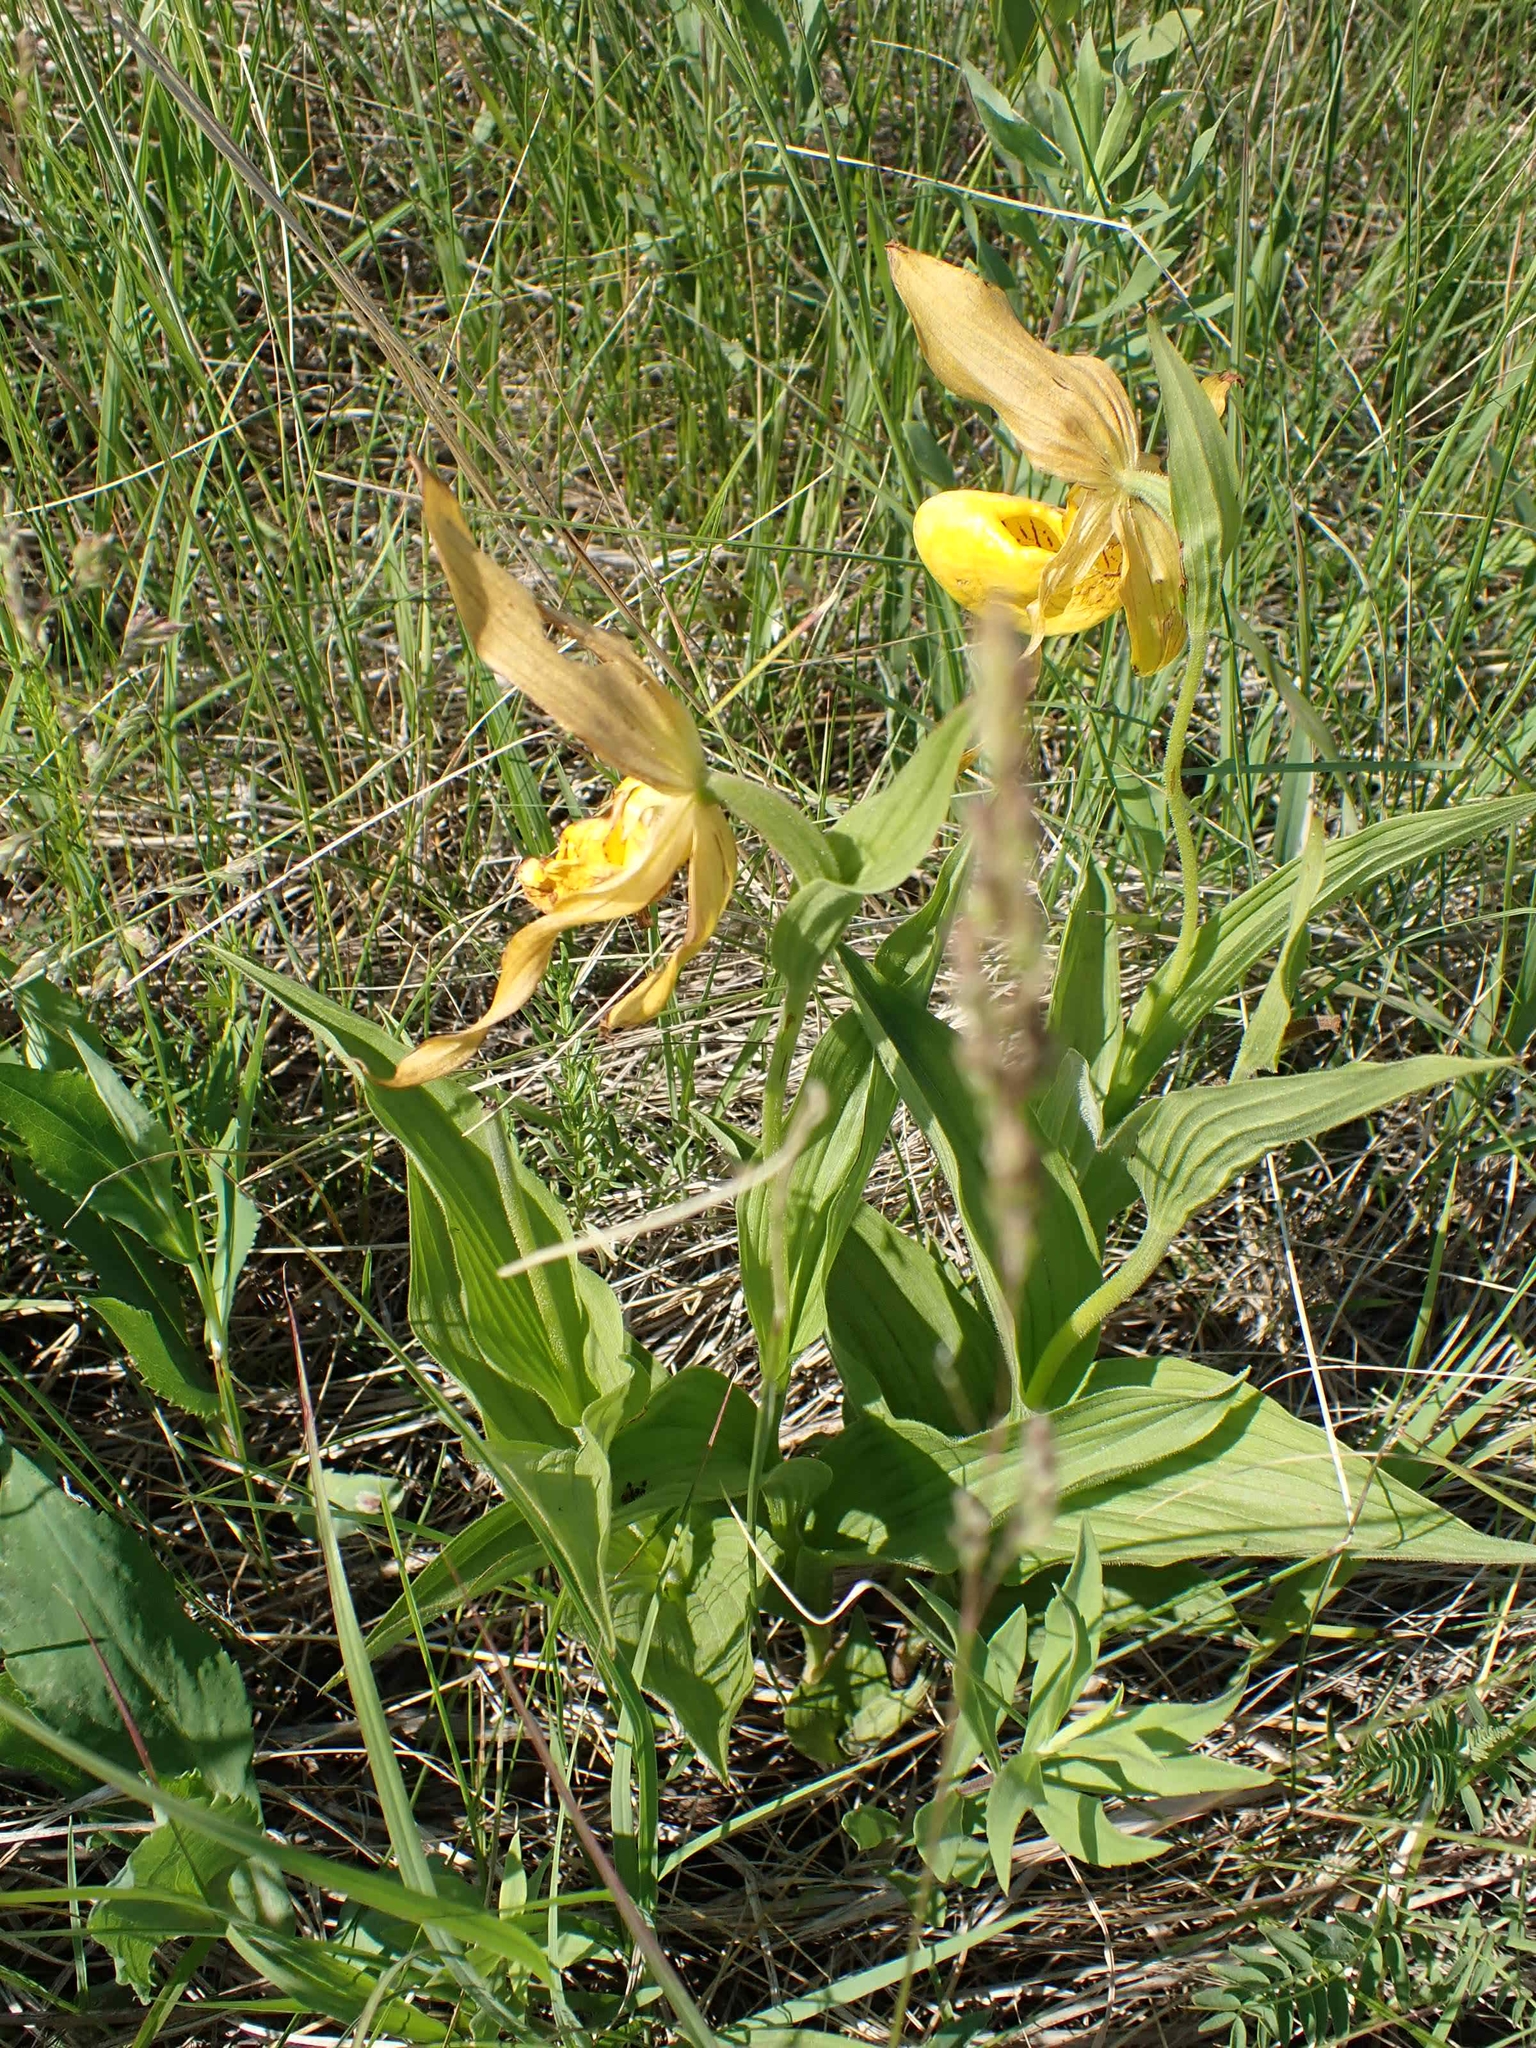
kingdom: Plantae
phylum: Tracheophyta
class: Liliopsida
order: Asparagales
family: Orchidaceae
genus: Cypripedium
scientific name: Cypripedium parviflorum
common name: American yellow lady's-slipper
